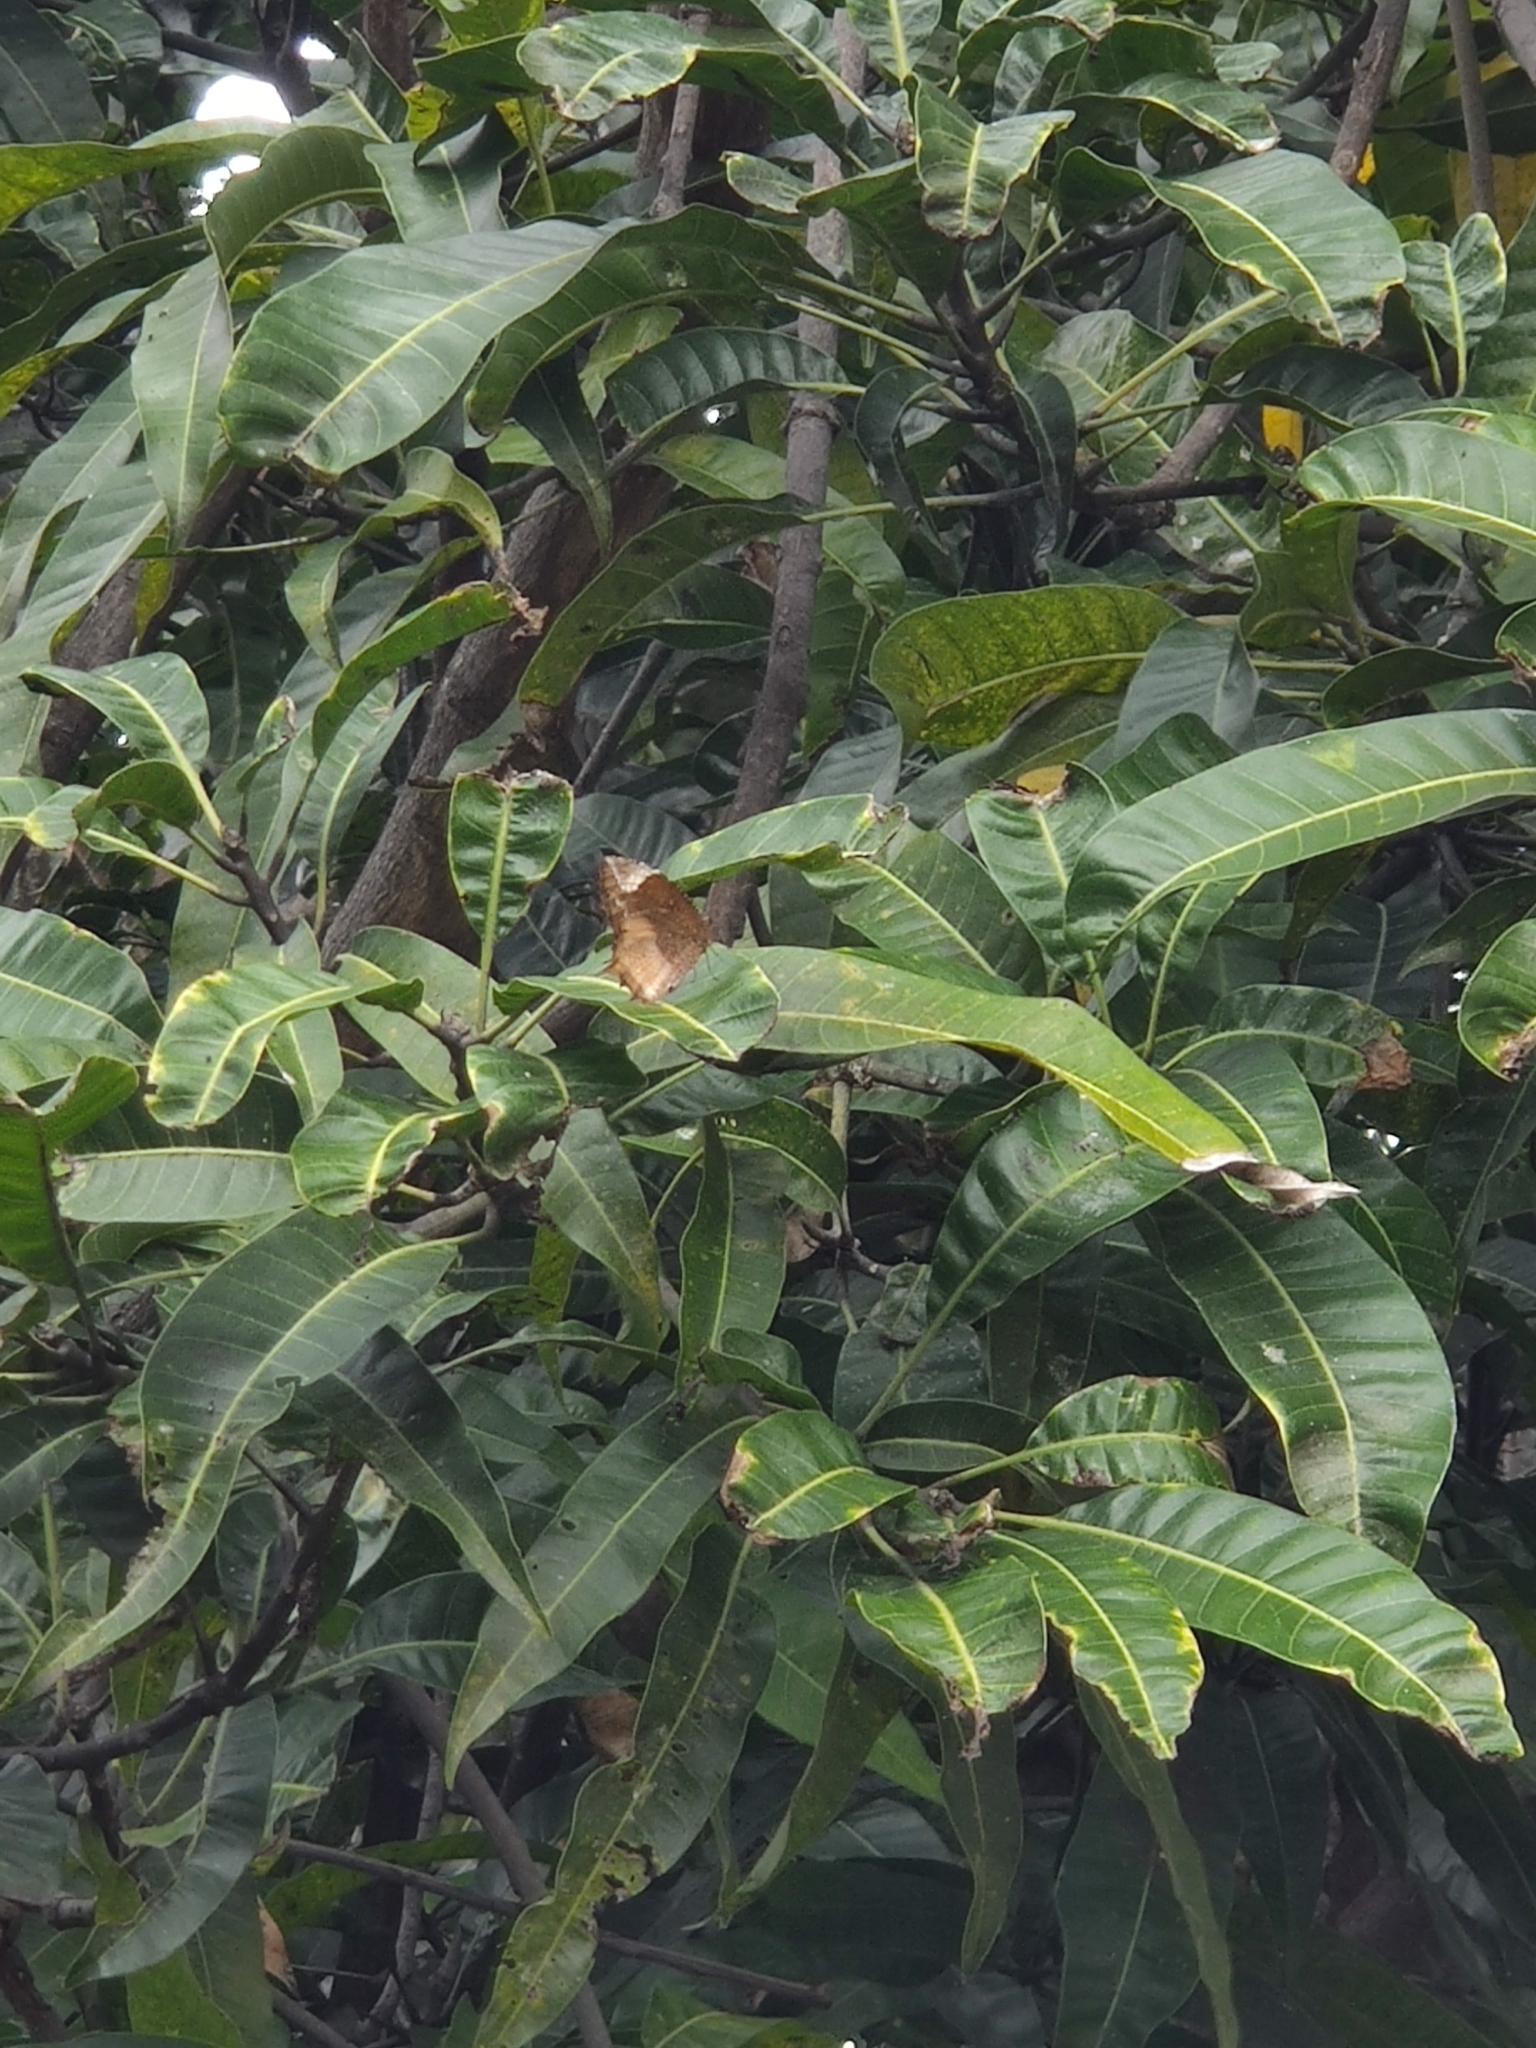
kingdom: Animalia
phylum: Arthropoda
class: Insecta
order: Lepidoptera
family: Nymphalidae
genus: Elymnias
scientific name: Elymnias caudata
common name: Tailed palmfly
